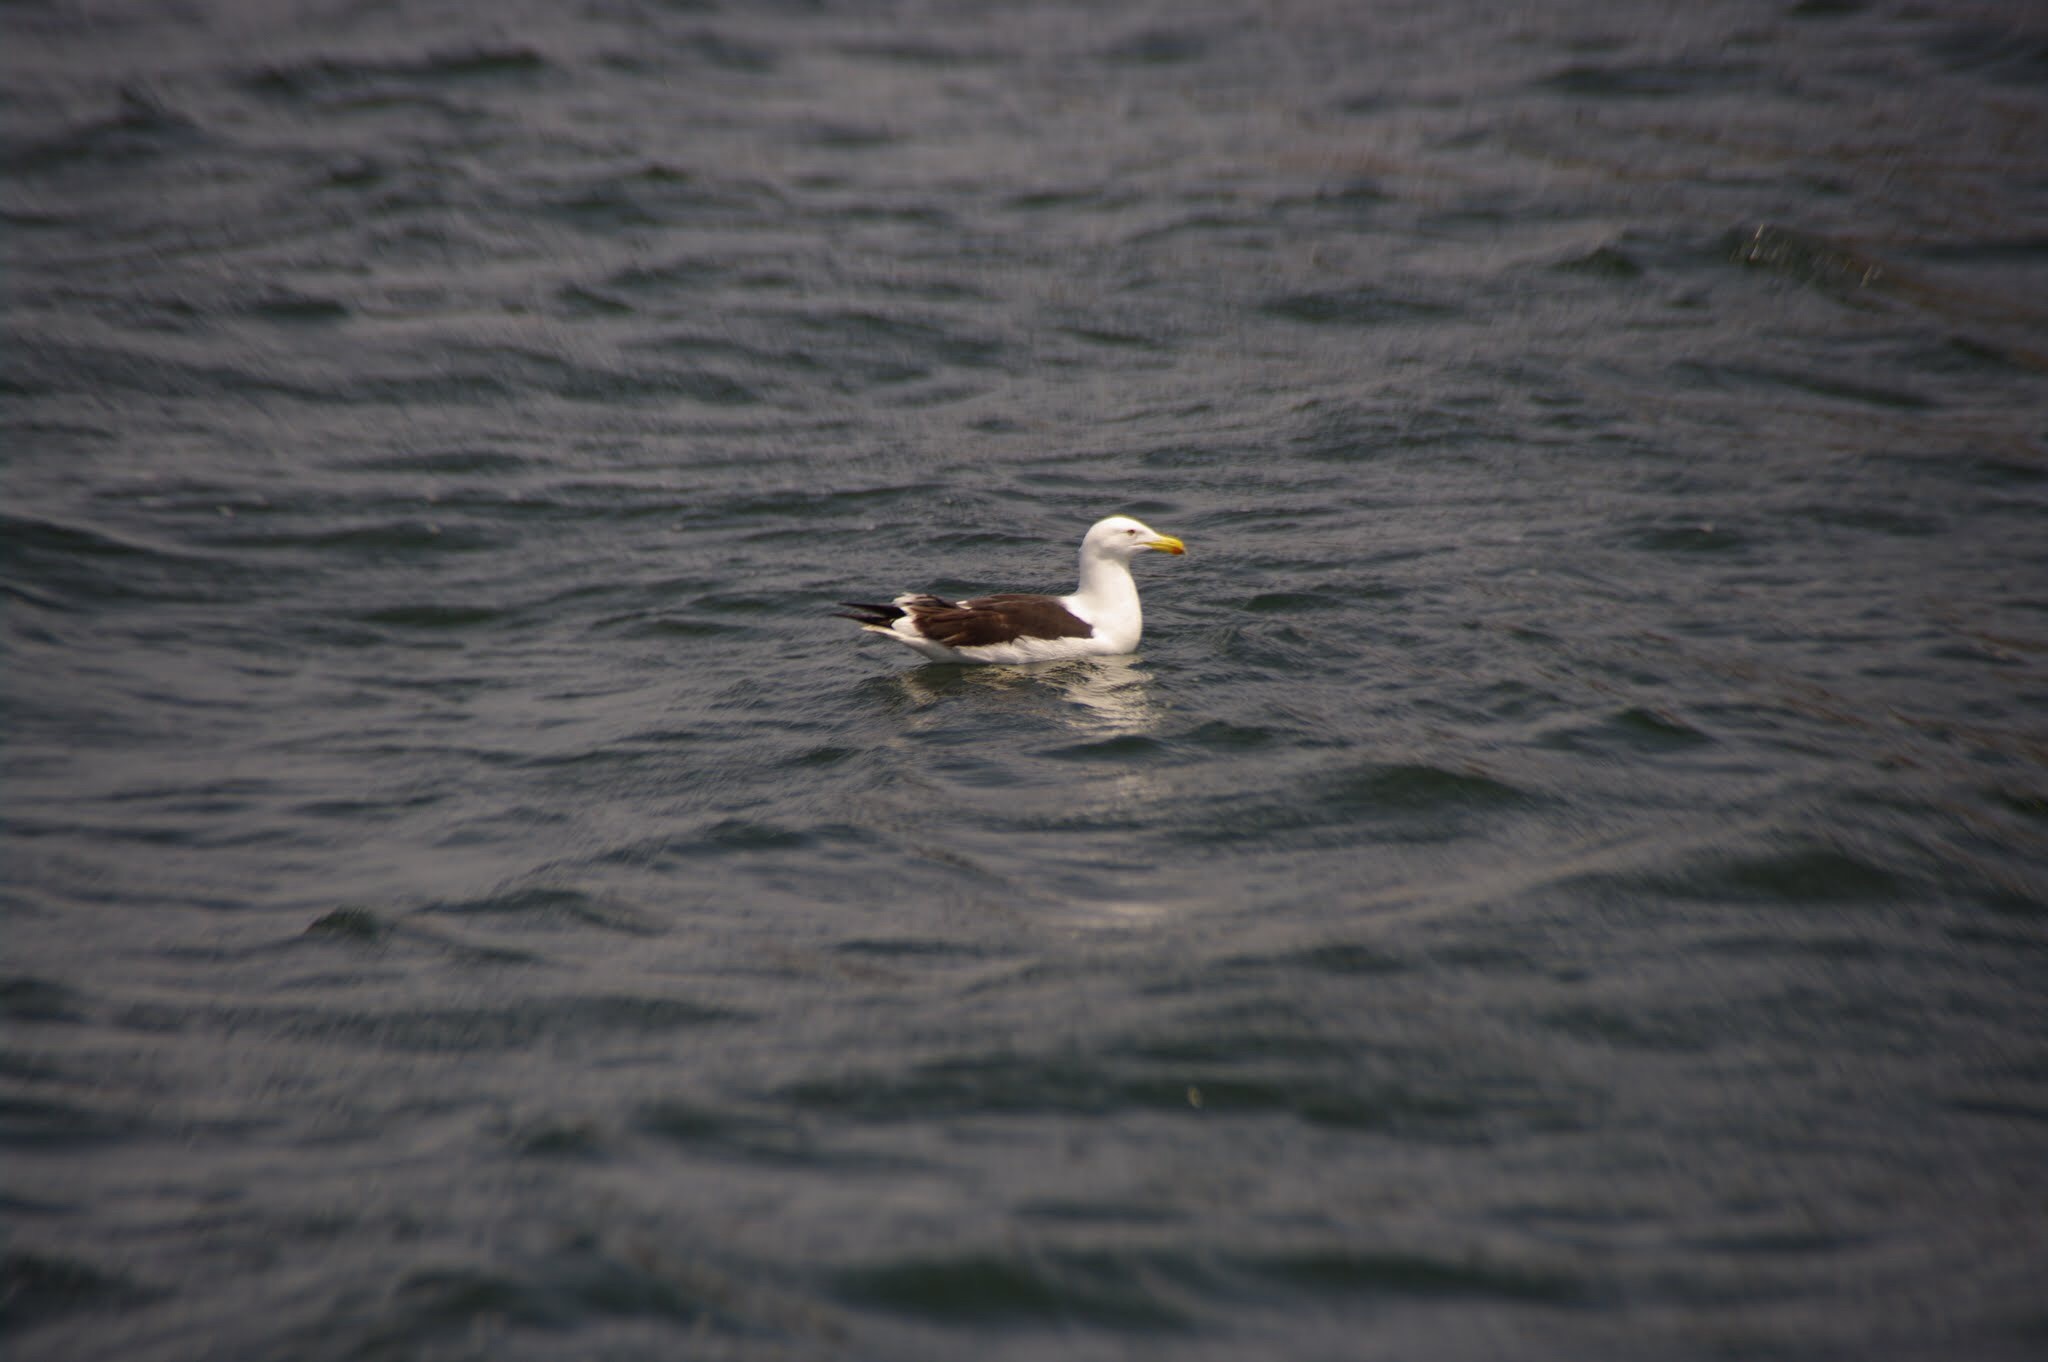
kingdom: Animalia
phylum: Chordata
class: Aves
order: Charadriiformes
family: Laridae
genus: Larus
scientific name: Larus dominicanus
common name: Kelp gull
